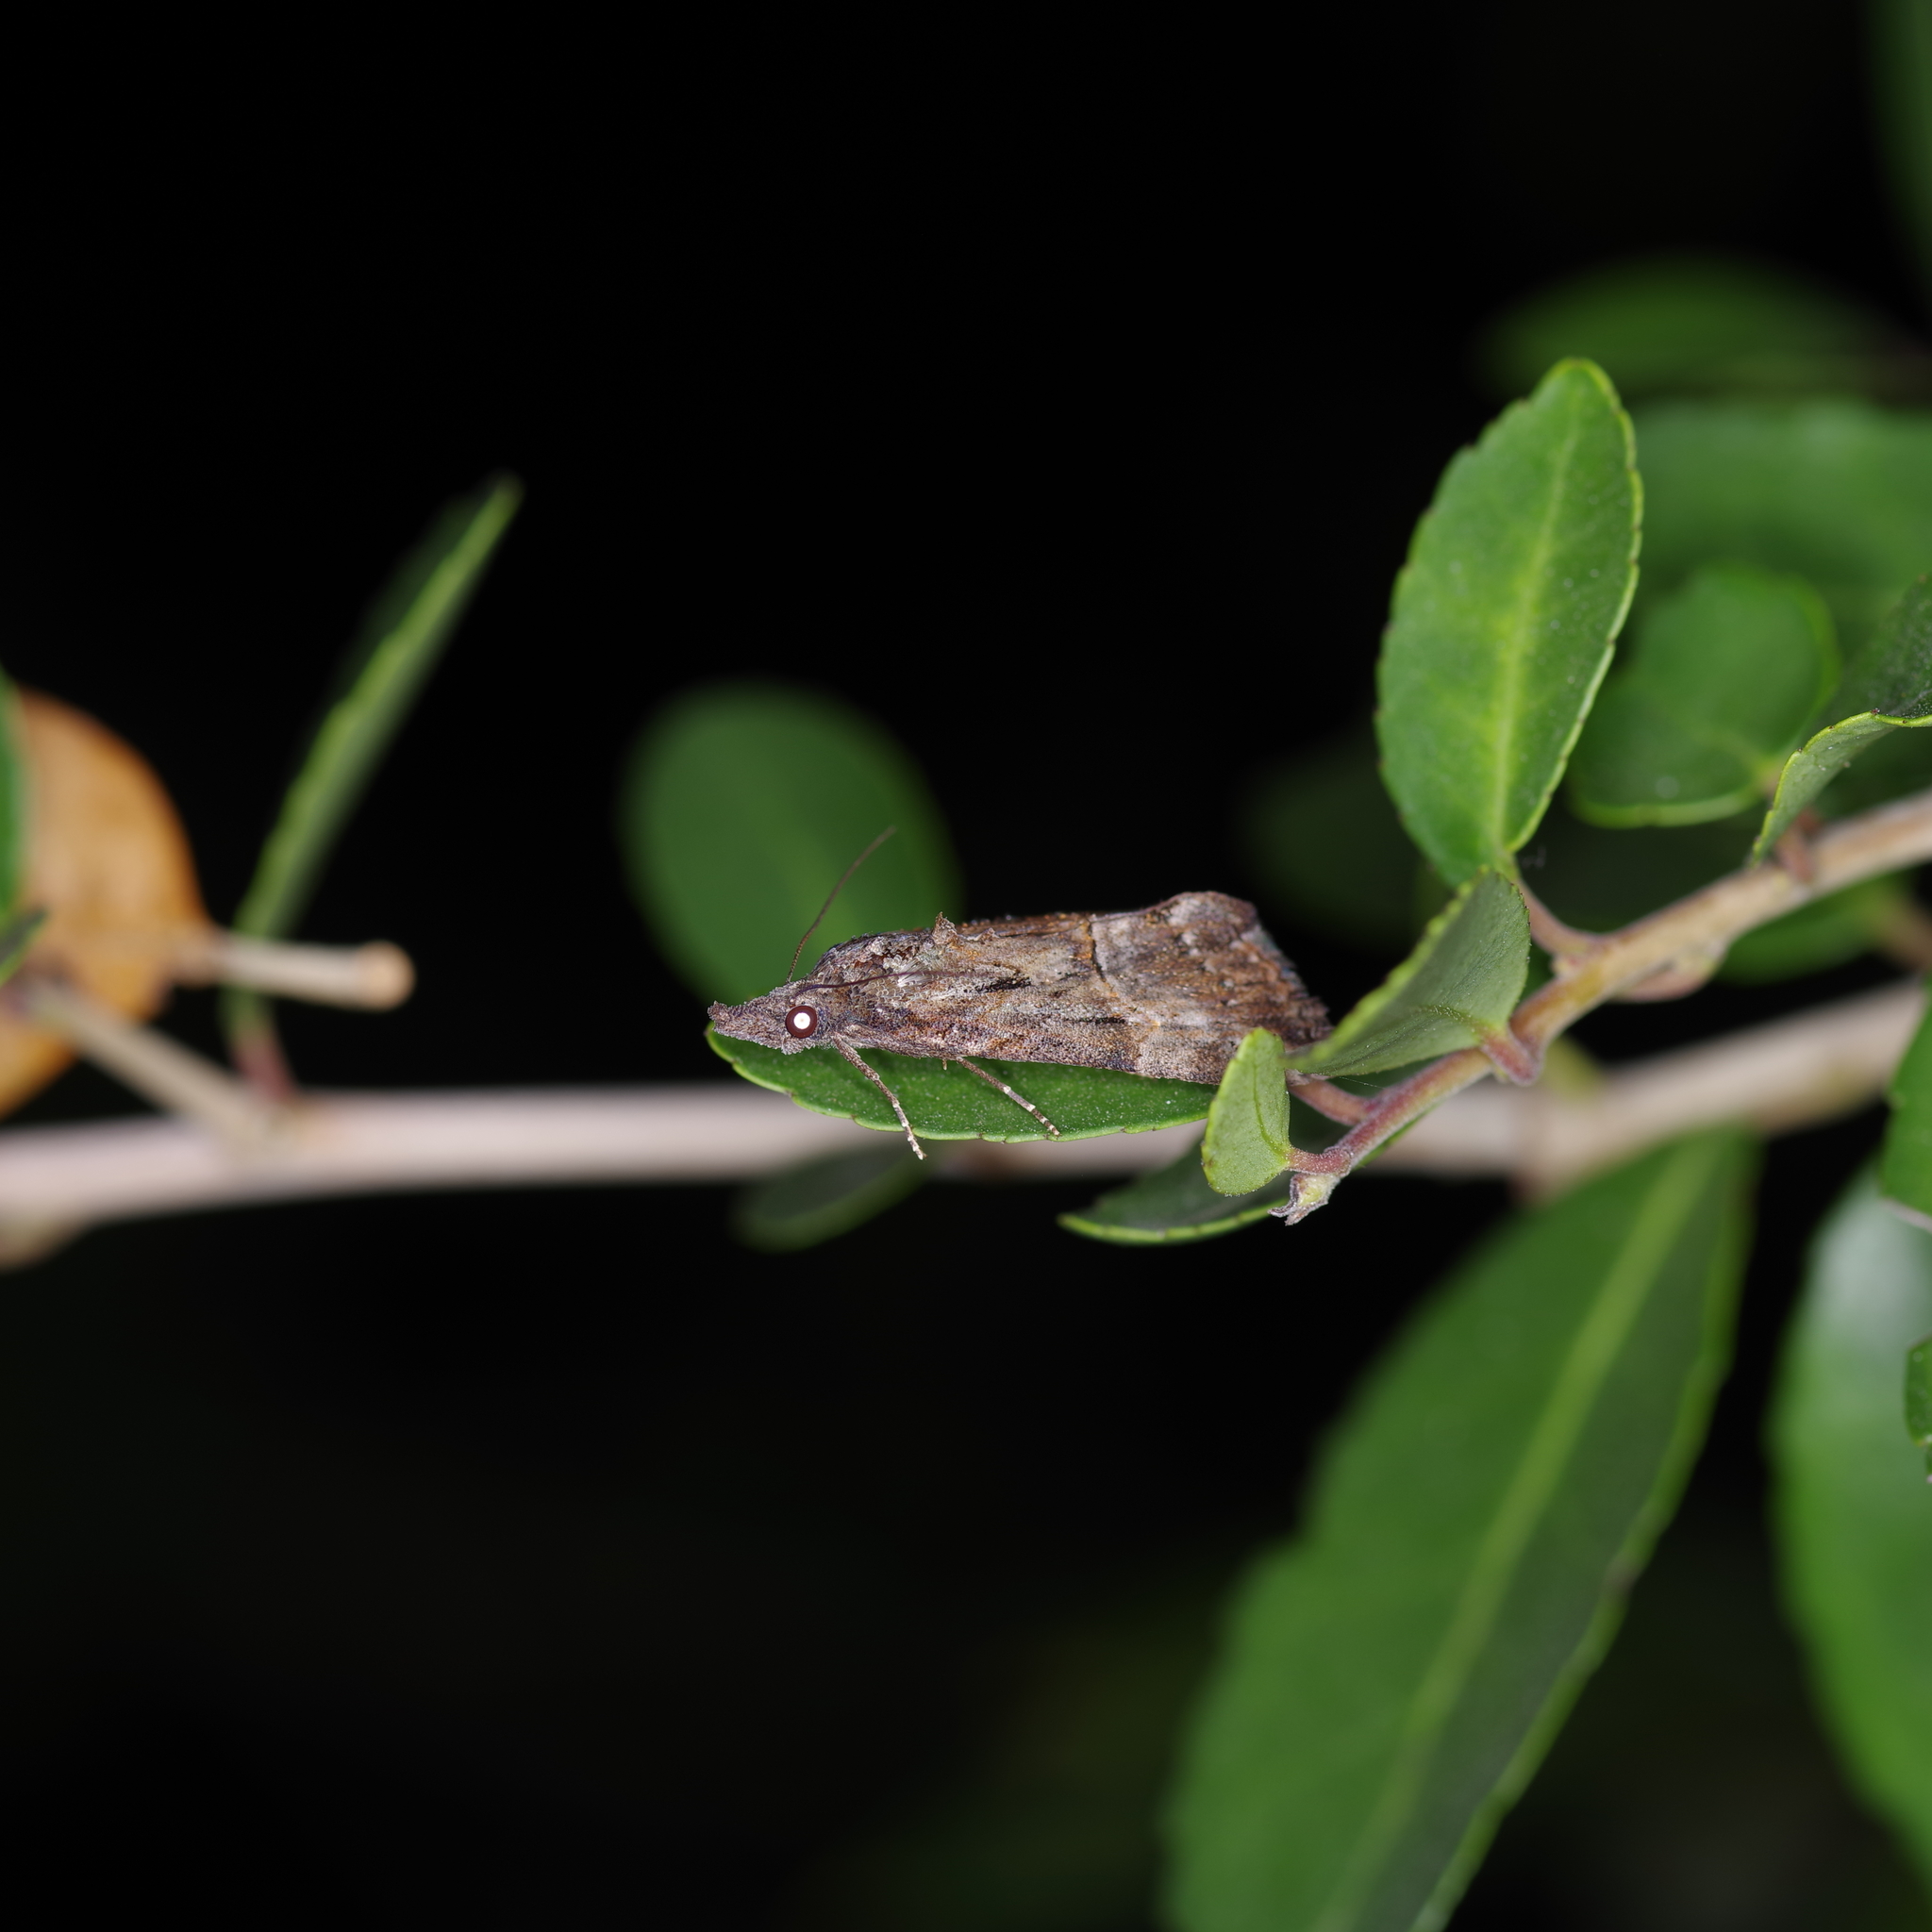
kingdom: Animalia
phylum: Arthropoda
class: Insecta
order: Lepidoptera
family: Erebidae
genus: Hypena
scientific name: Hypena scabra
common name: Green cloverworm
